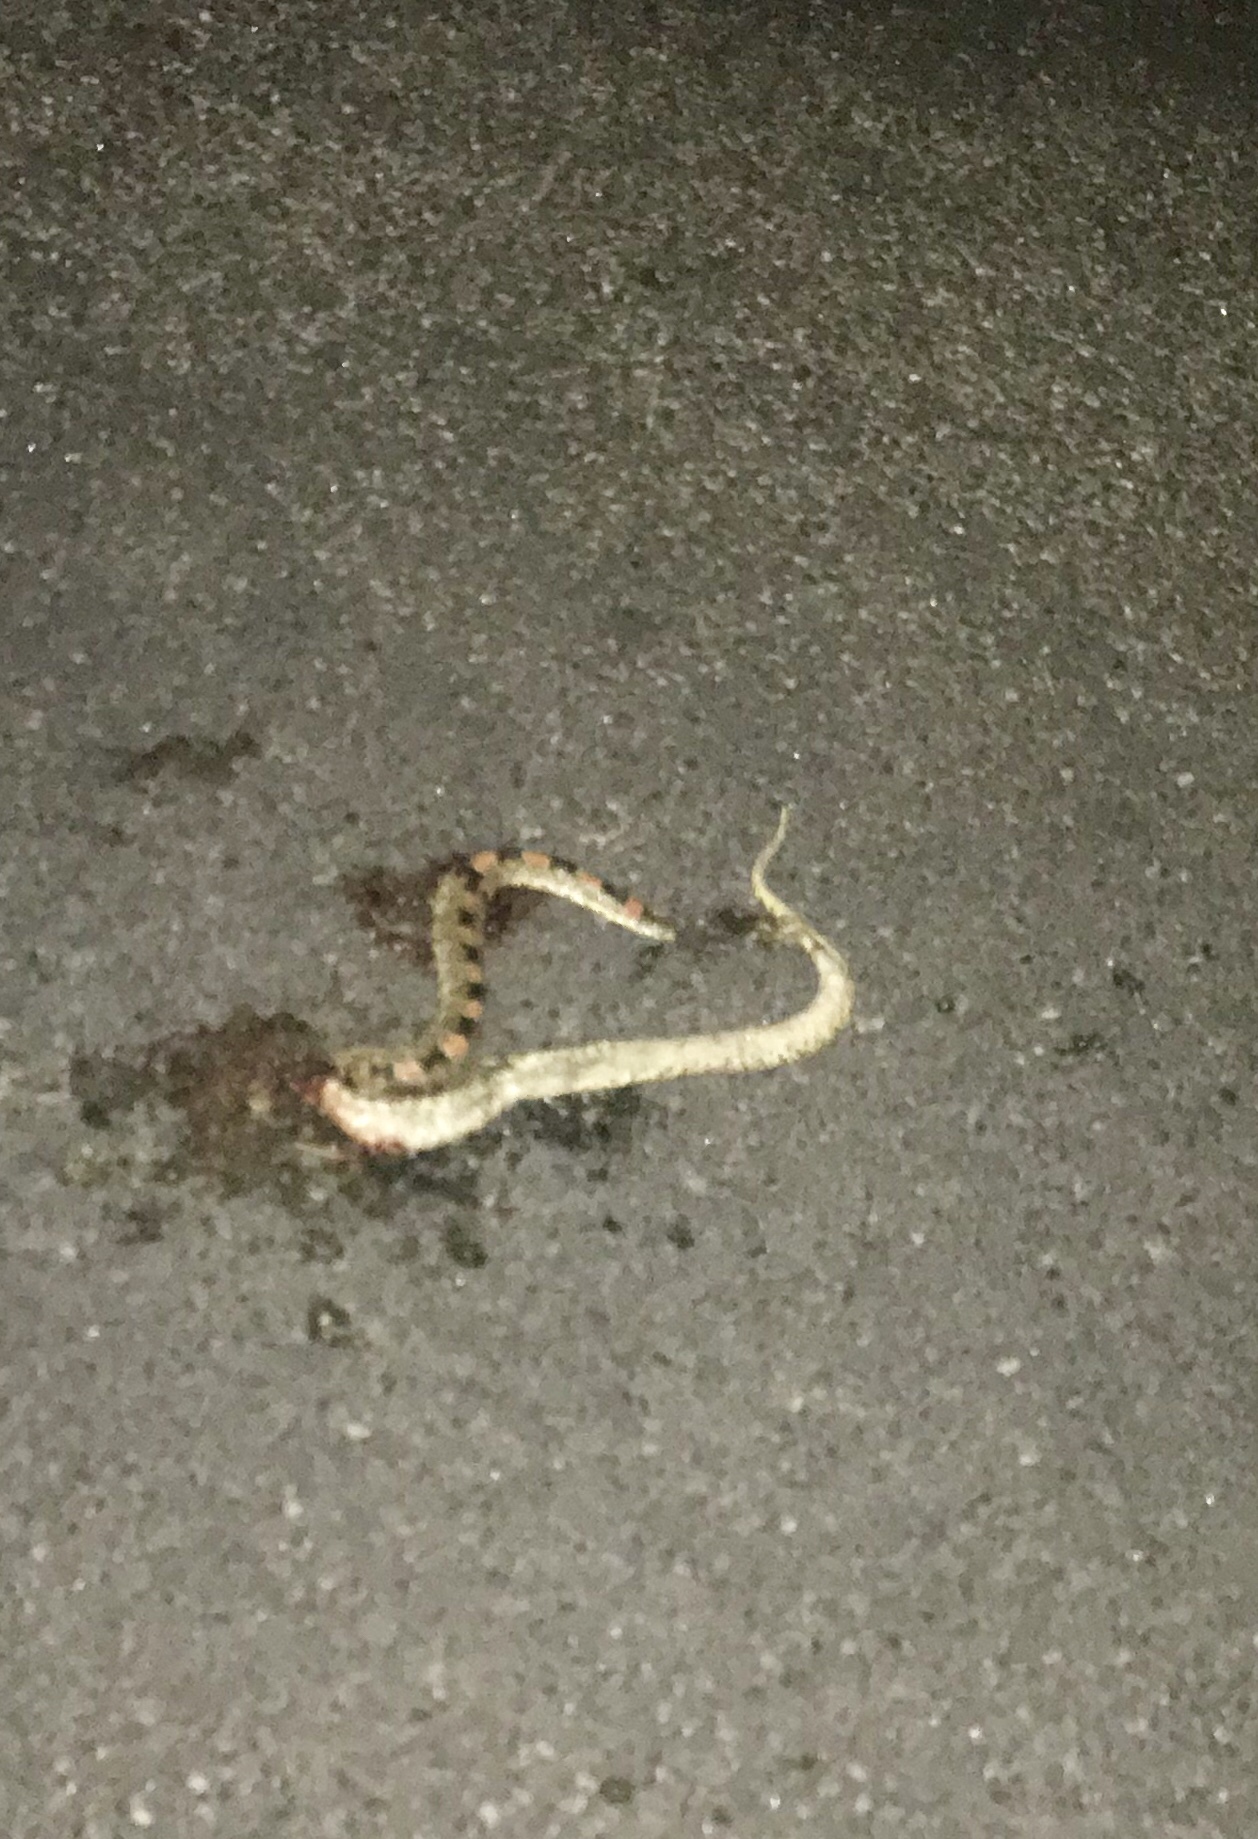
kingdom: Animalia
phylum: Chordata
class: Squamata
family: Colubridae
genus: Rhinocheilus
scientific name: Rhinocheilus lecontei
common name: Longnose snake
